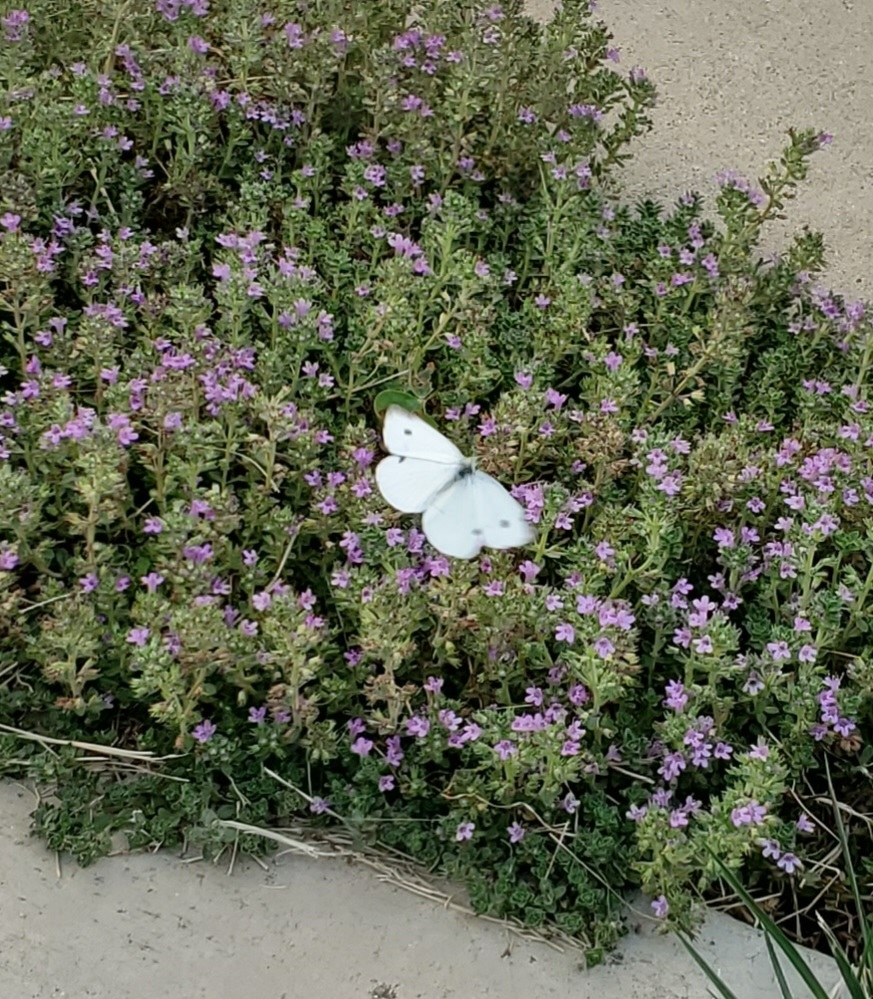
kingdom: Animalia
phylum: Arthropoda
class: Insecta
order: Lepidoptera
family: Pieridae
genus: Pieris
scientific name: Pieris rapae
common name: Small white
